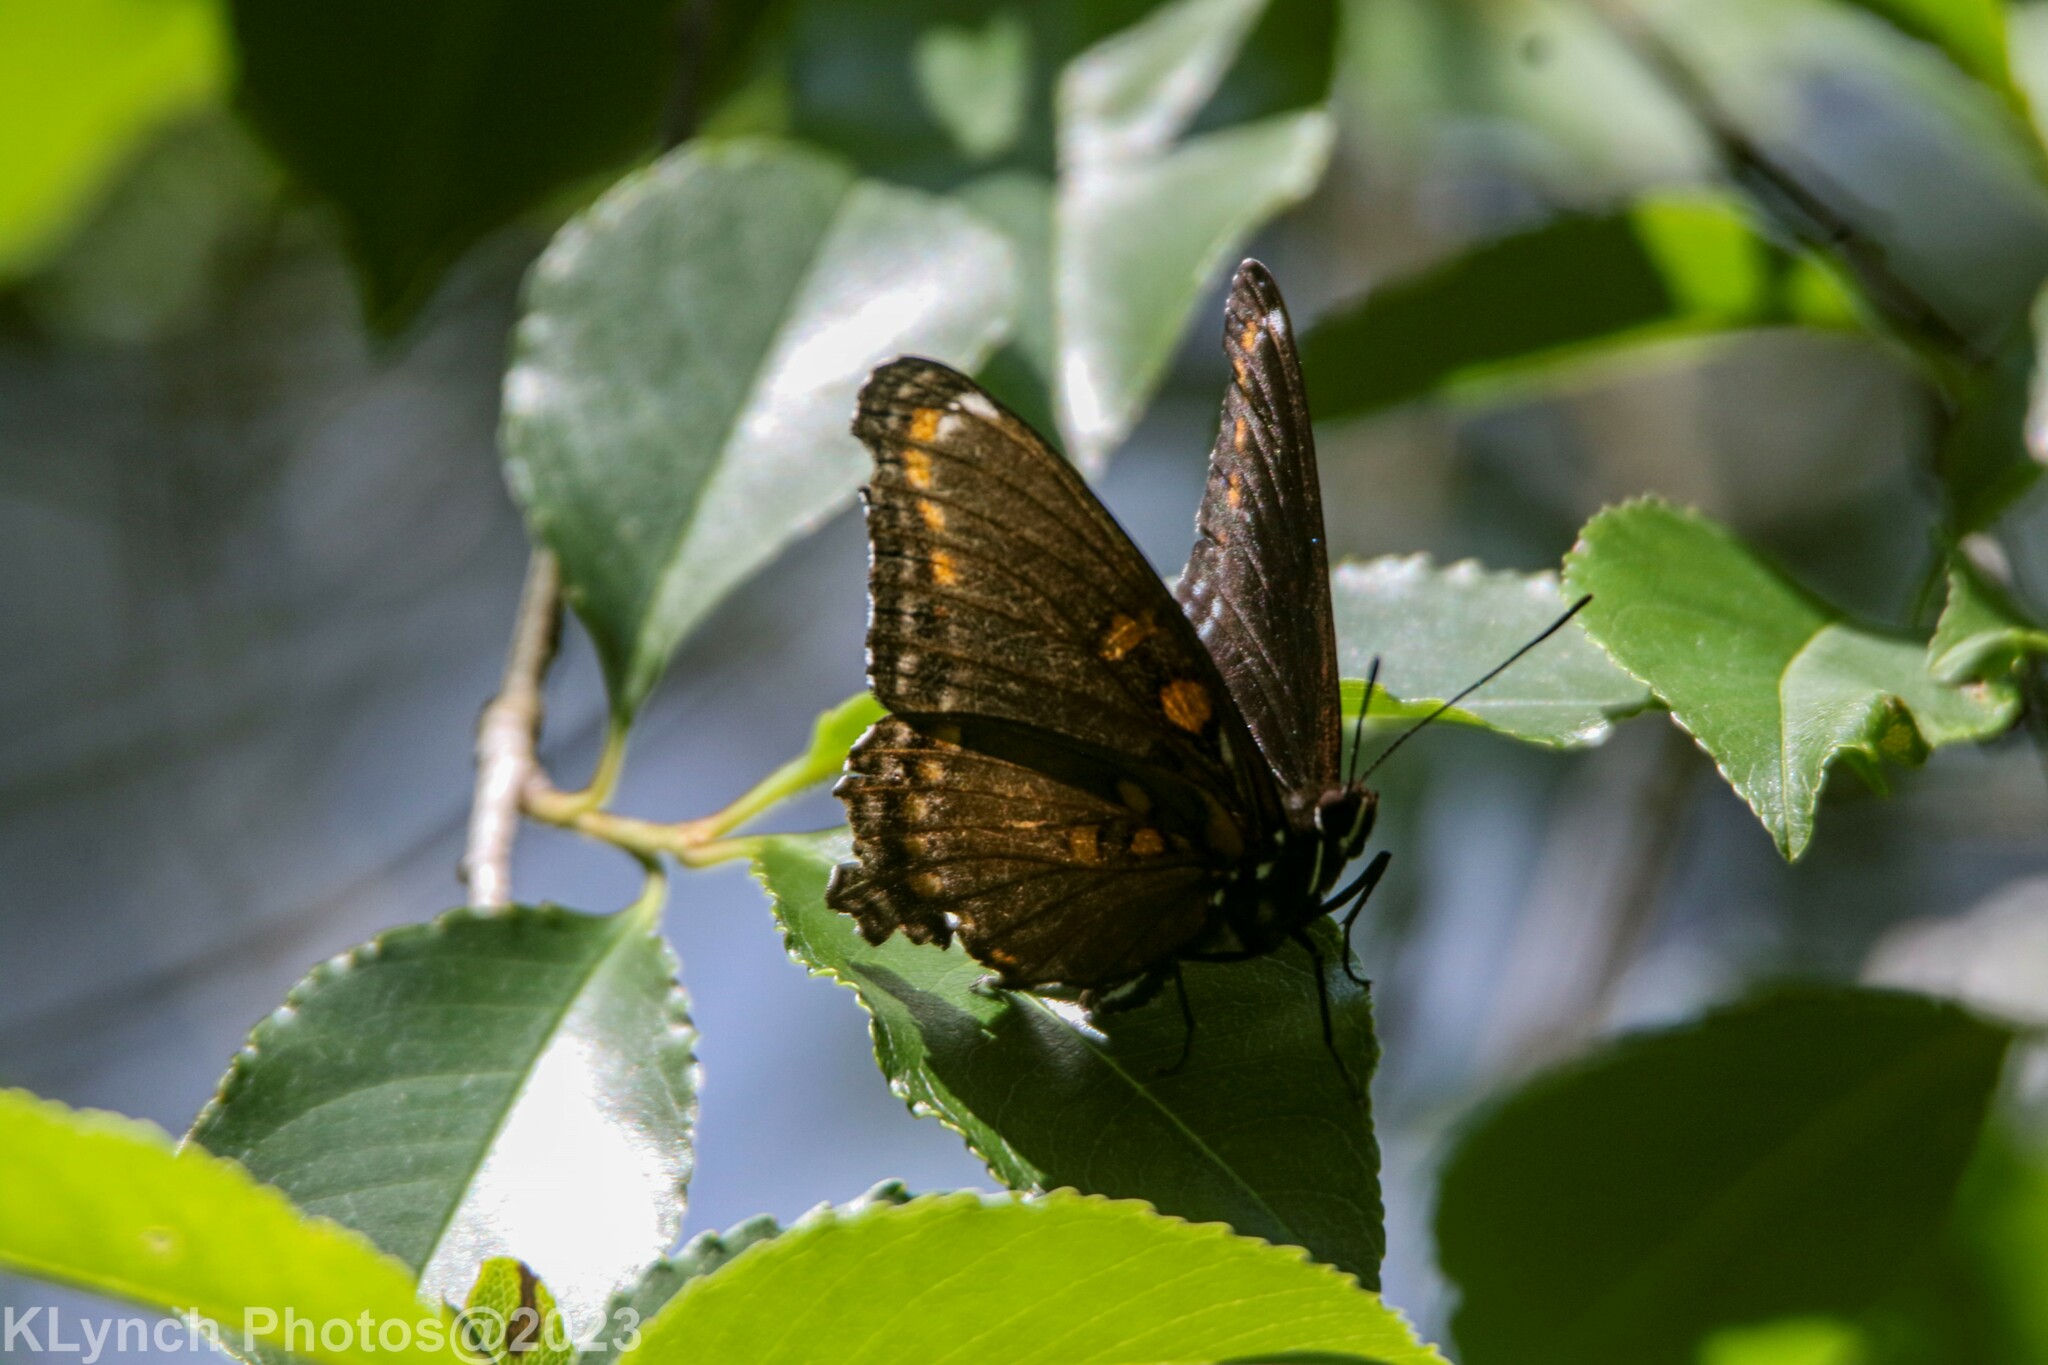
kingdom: Animalia
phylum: Arthropoda
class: Insecta
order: Lepidoptera
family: Nymphalidae
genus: Limenitis
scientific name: Limenitis arthemis
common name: Red-spotted admiral
